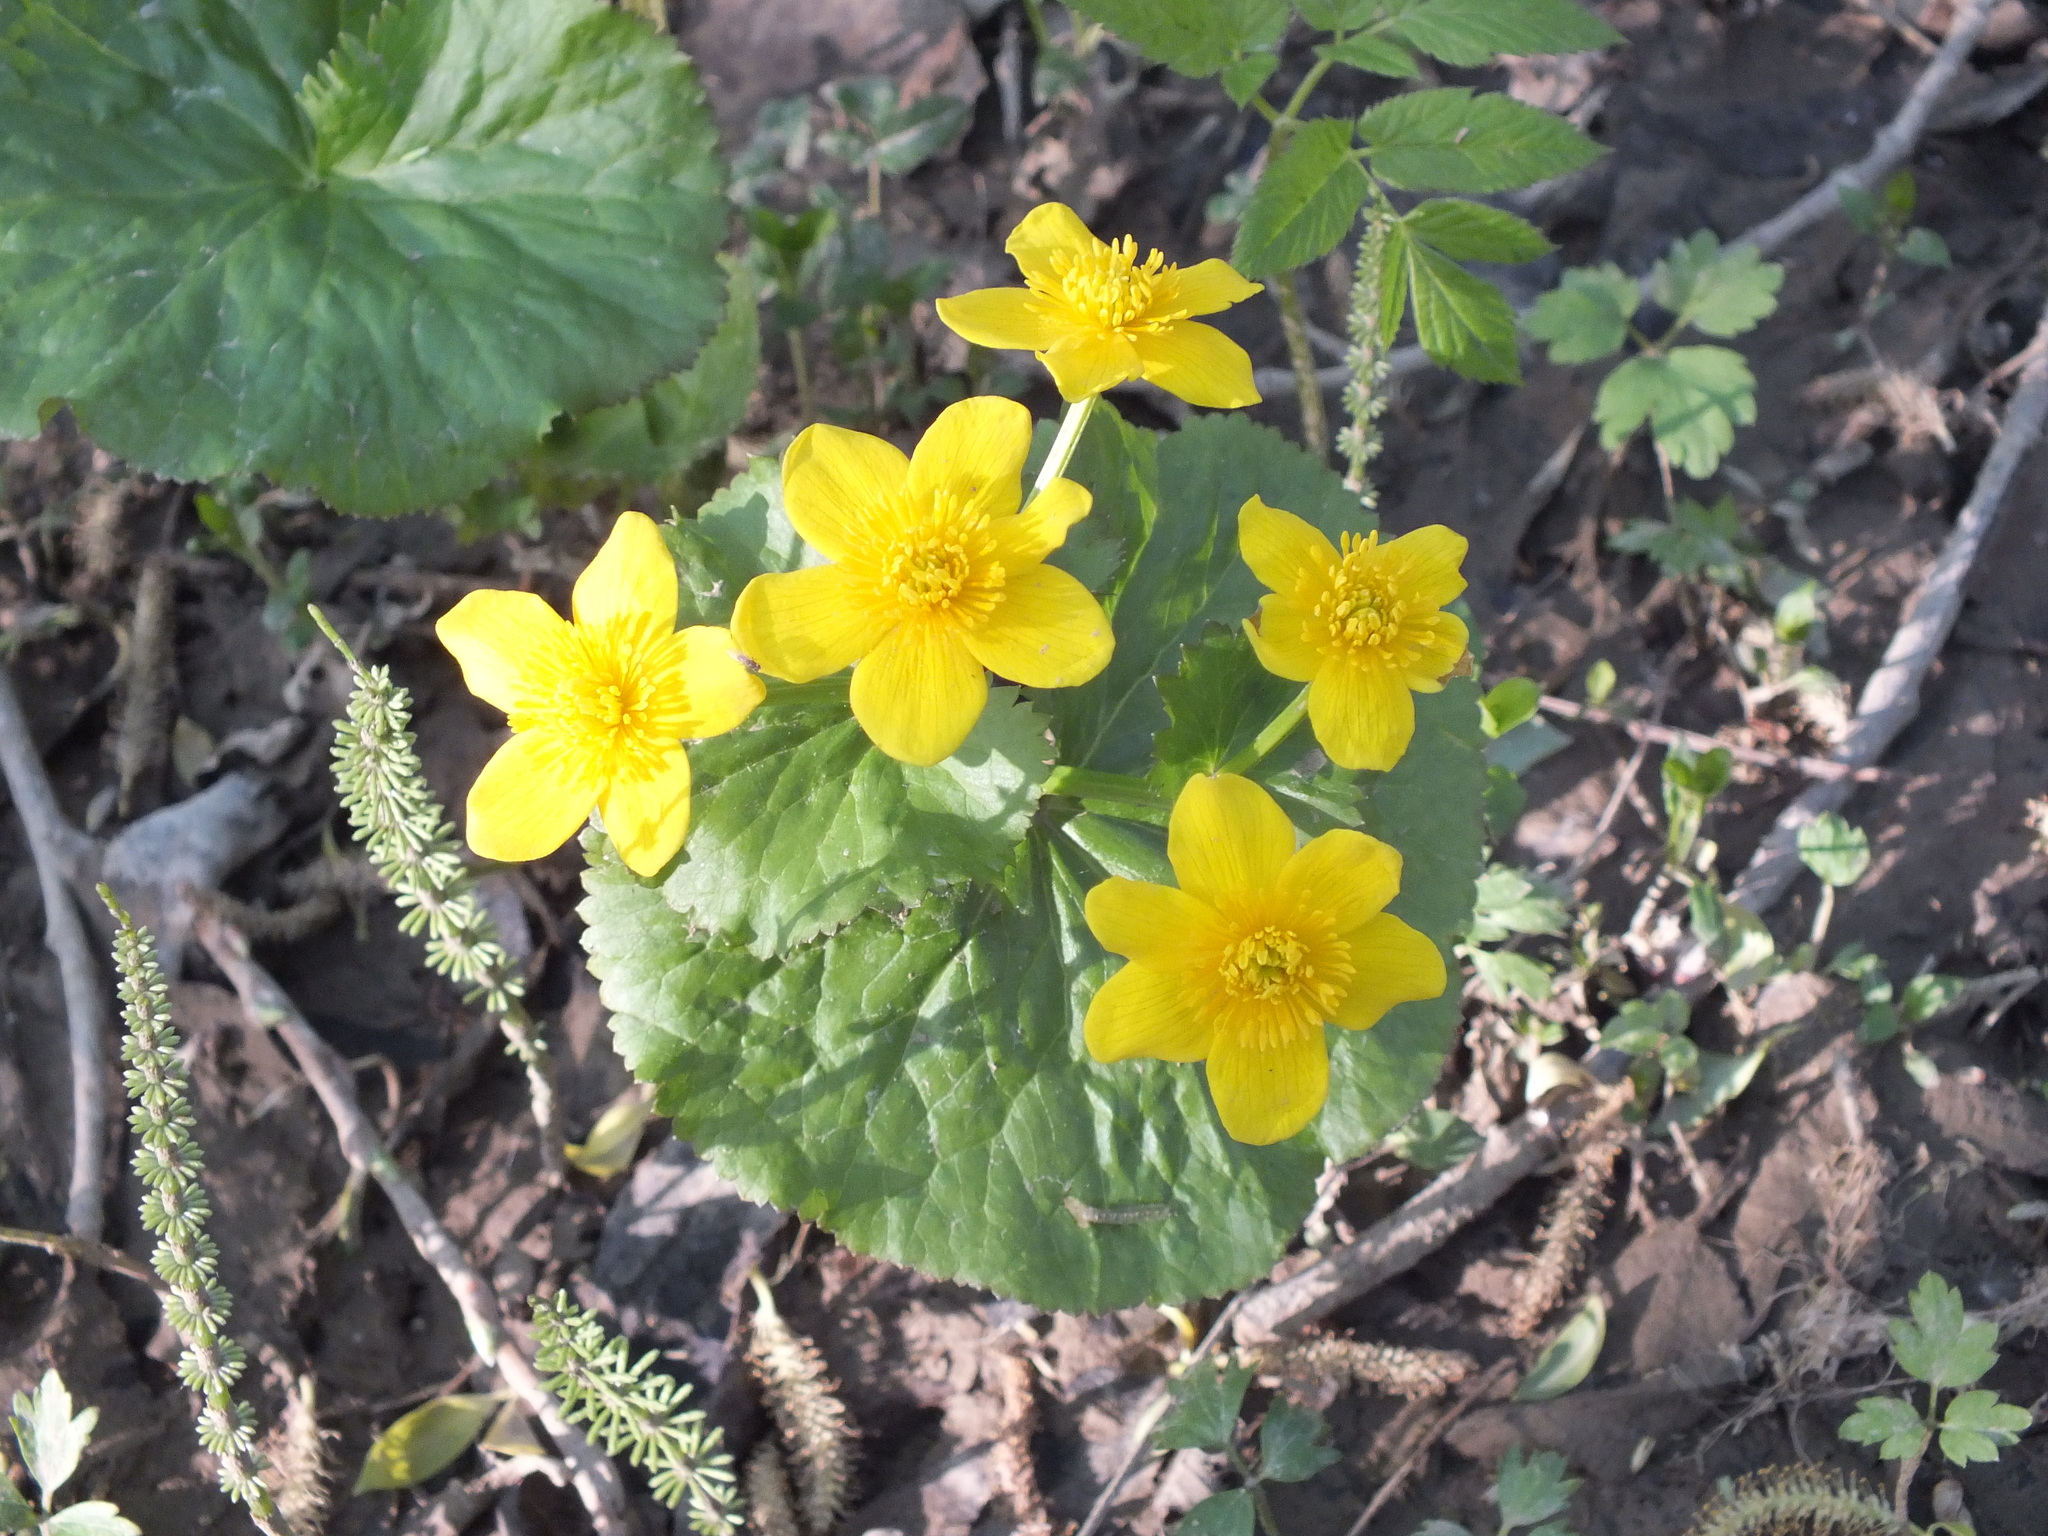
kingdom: Plantae
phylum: Tracheophyta
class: Magnoliopsida
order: Ranunculales
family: Ranunculaceae
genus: Caltha
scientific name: Caltha palustris
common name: Marsh marigold
